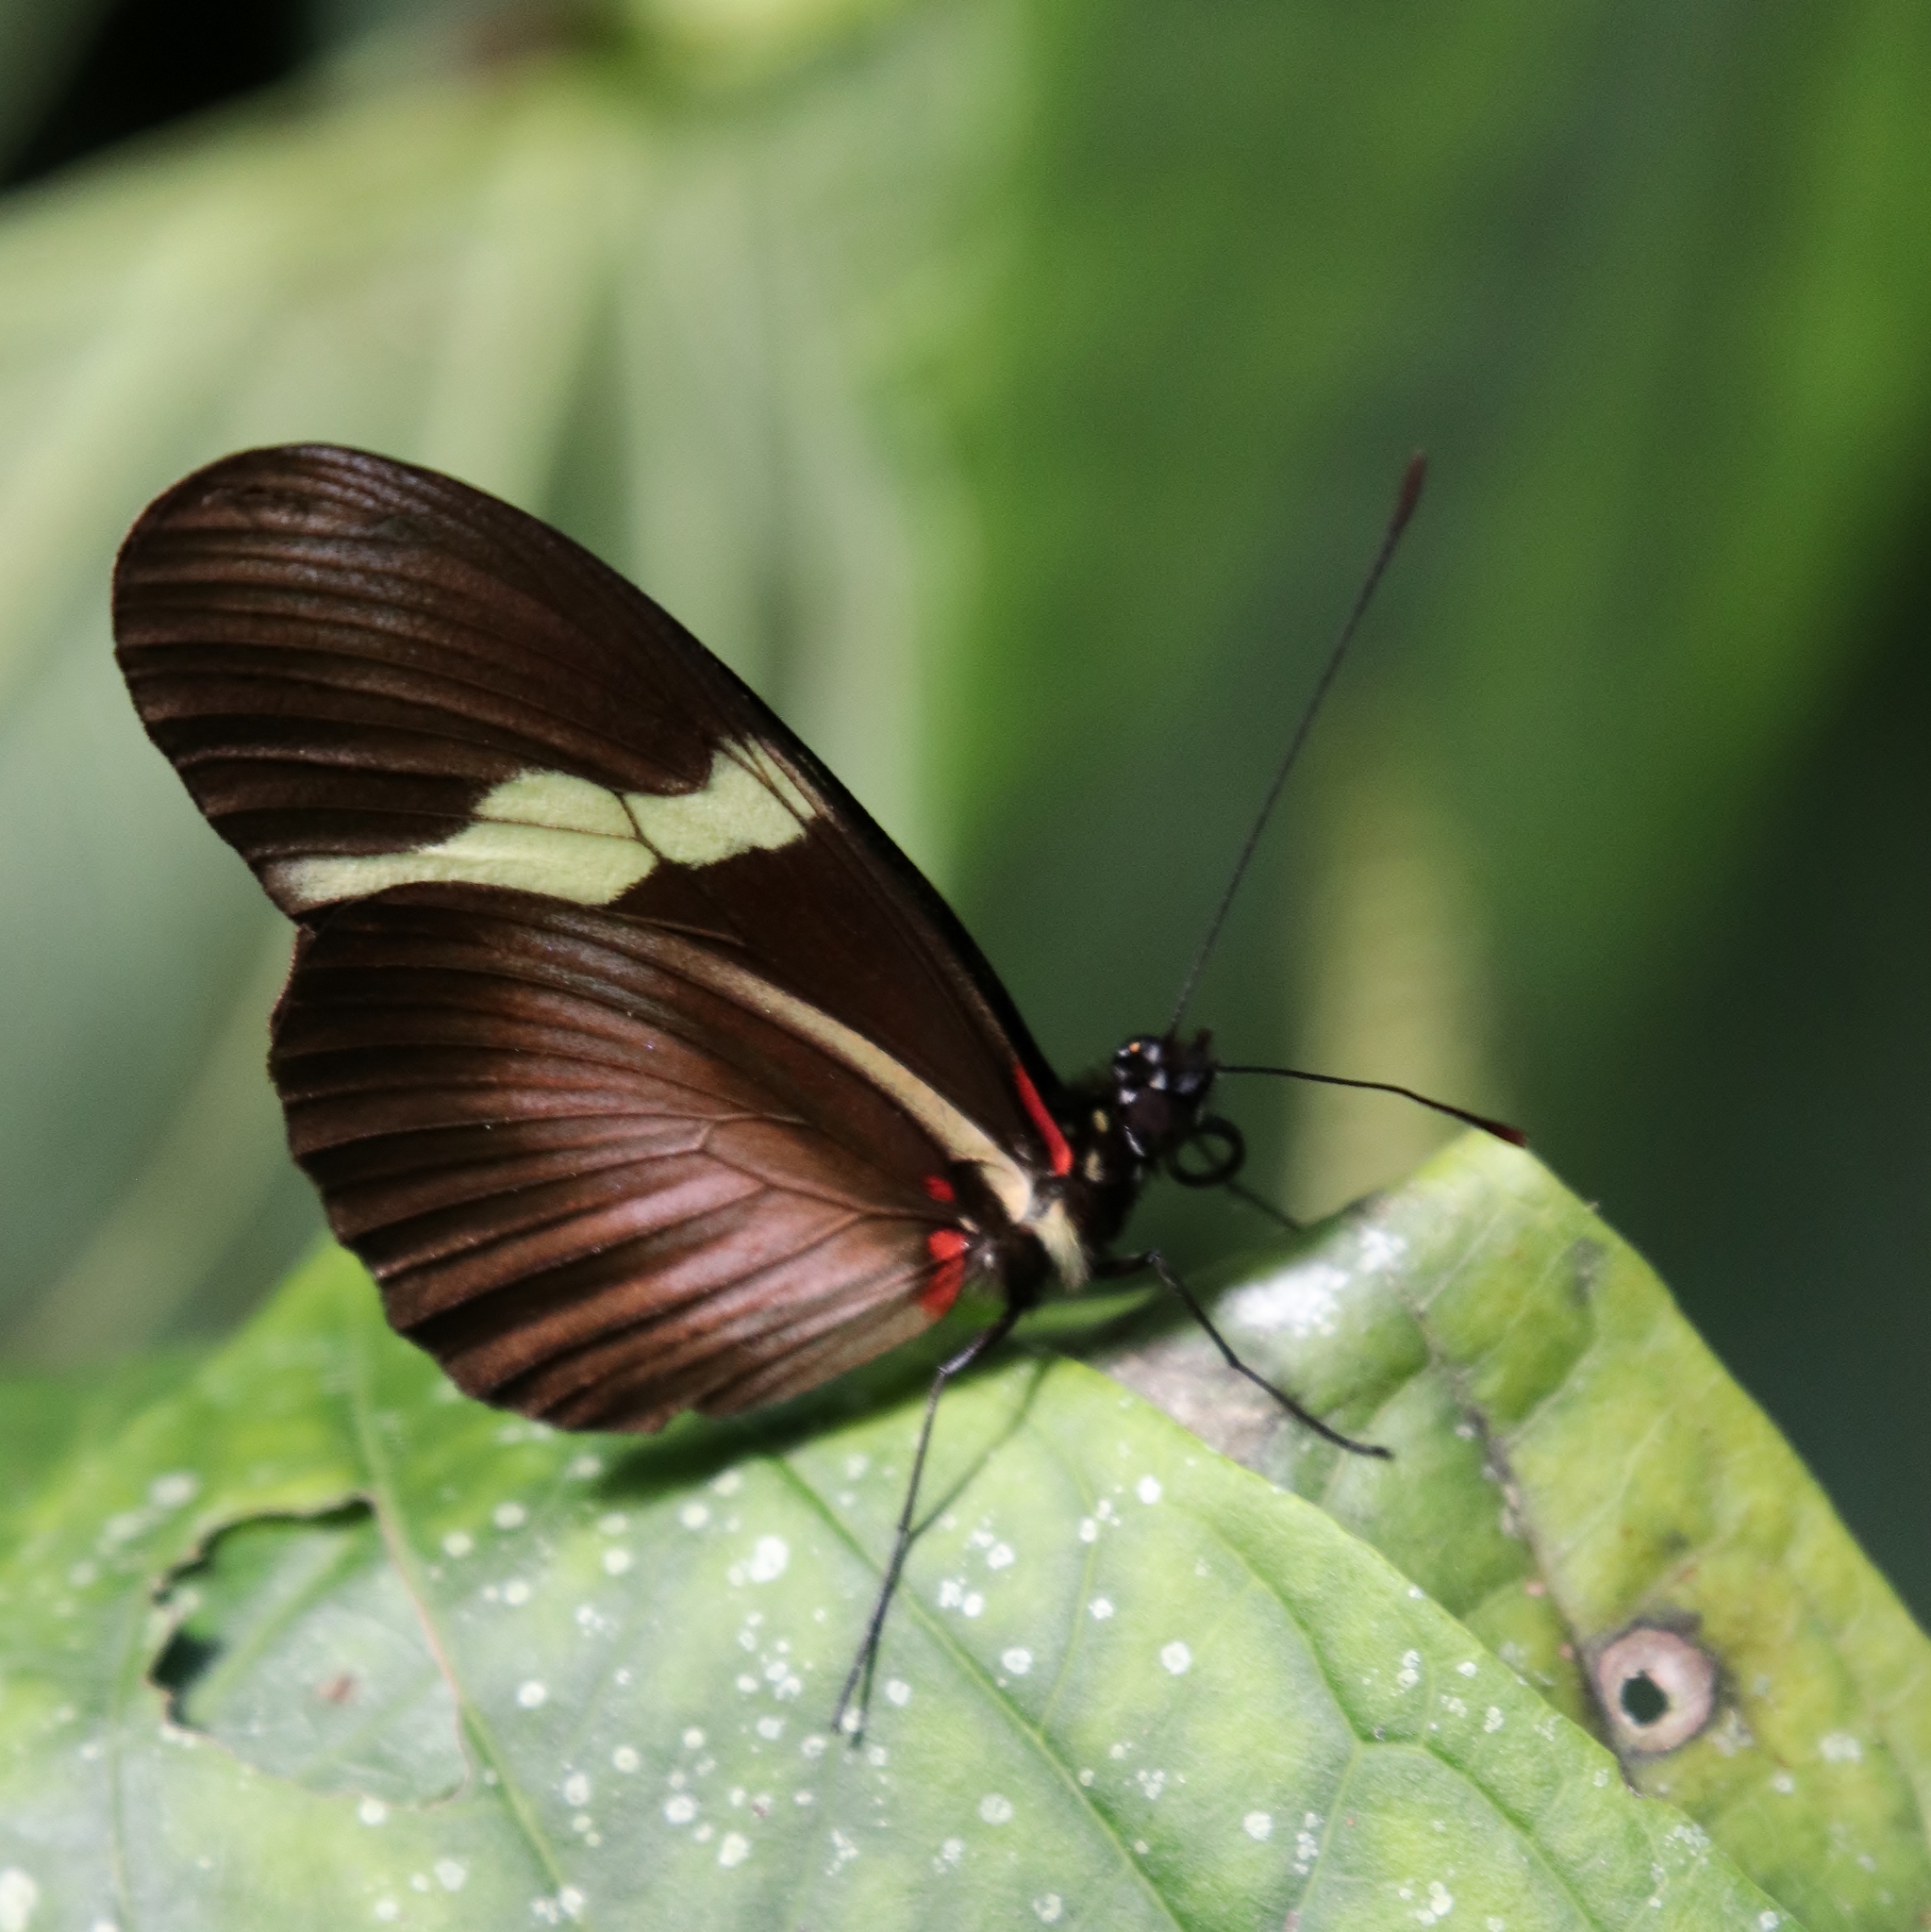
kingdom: Animalia
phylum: Arthropoda
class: Insecta
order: Lepidoptera
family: Nymphalidae
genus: Heliconius
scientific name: Heliconius clysonymus
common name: Clysonymus longwing
